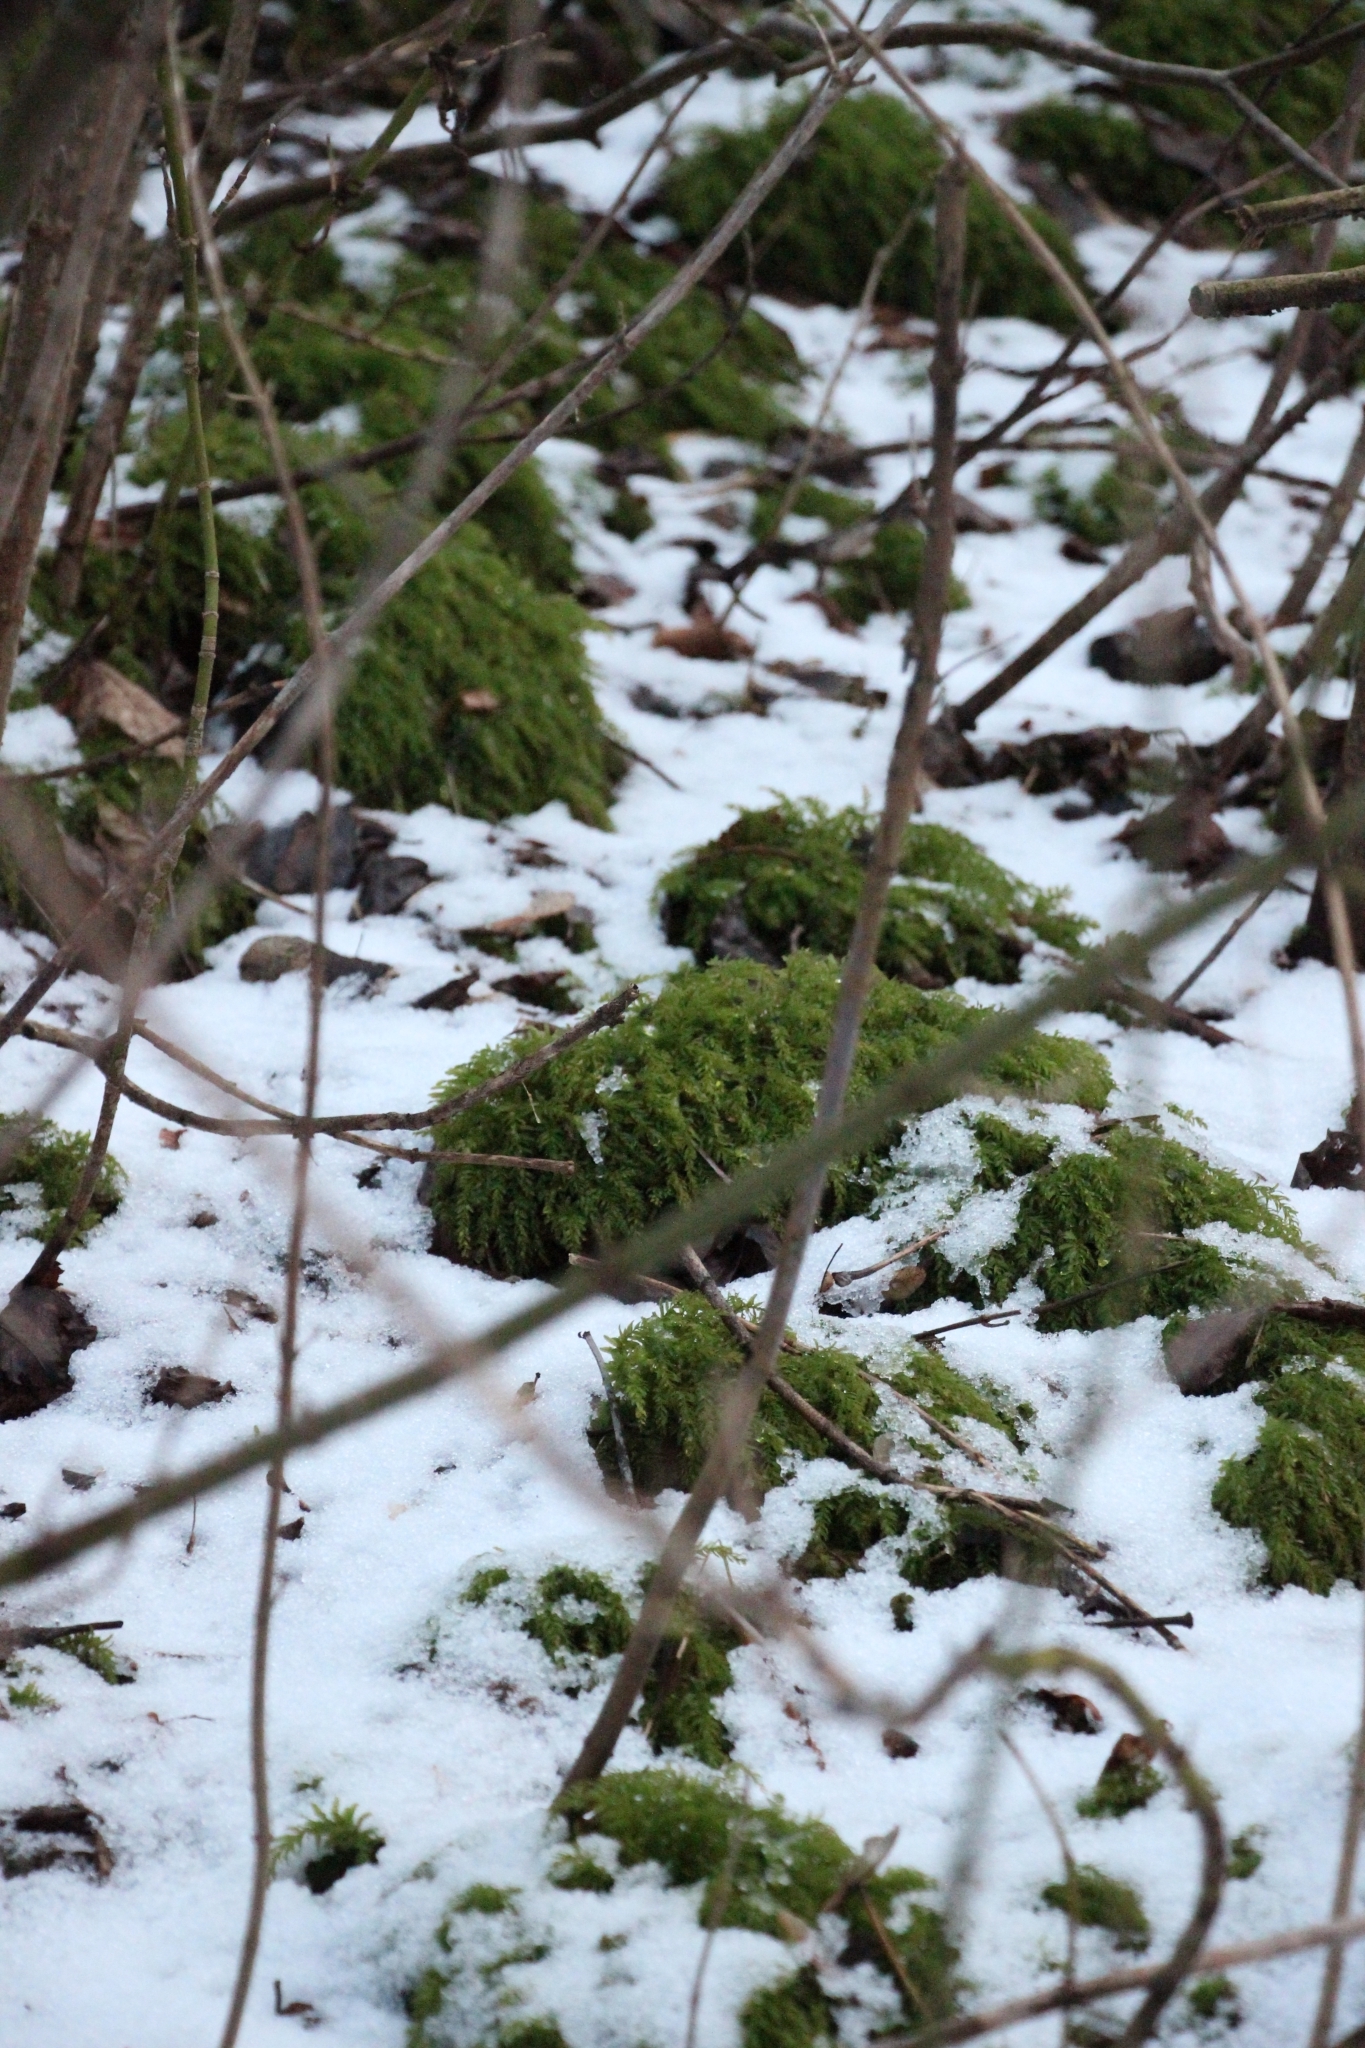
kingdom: Plantae
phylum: Bryophyta
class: Bryopsida
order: Bryales
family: Mniaceae
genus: Plagiomnium
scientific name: Plagiomnium undulatum
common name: Hart's-tongue thyme-moss
